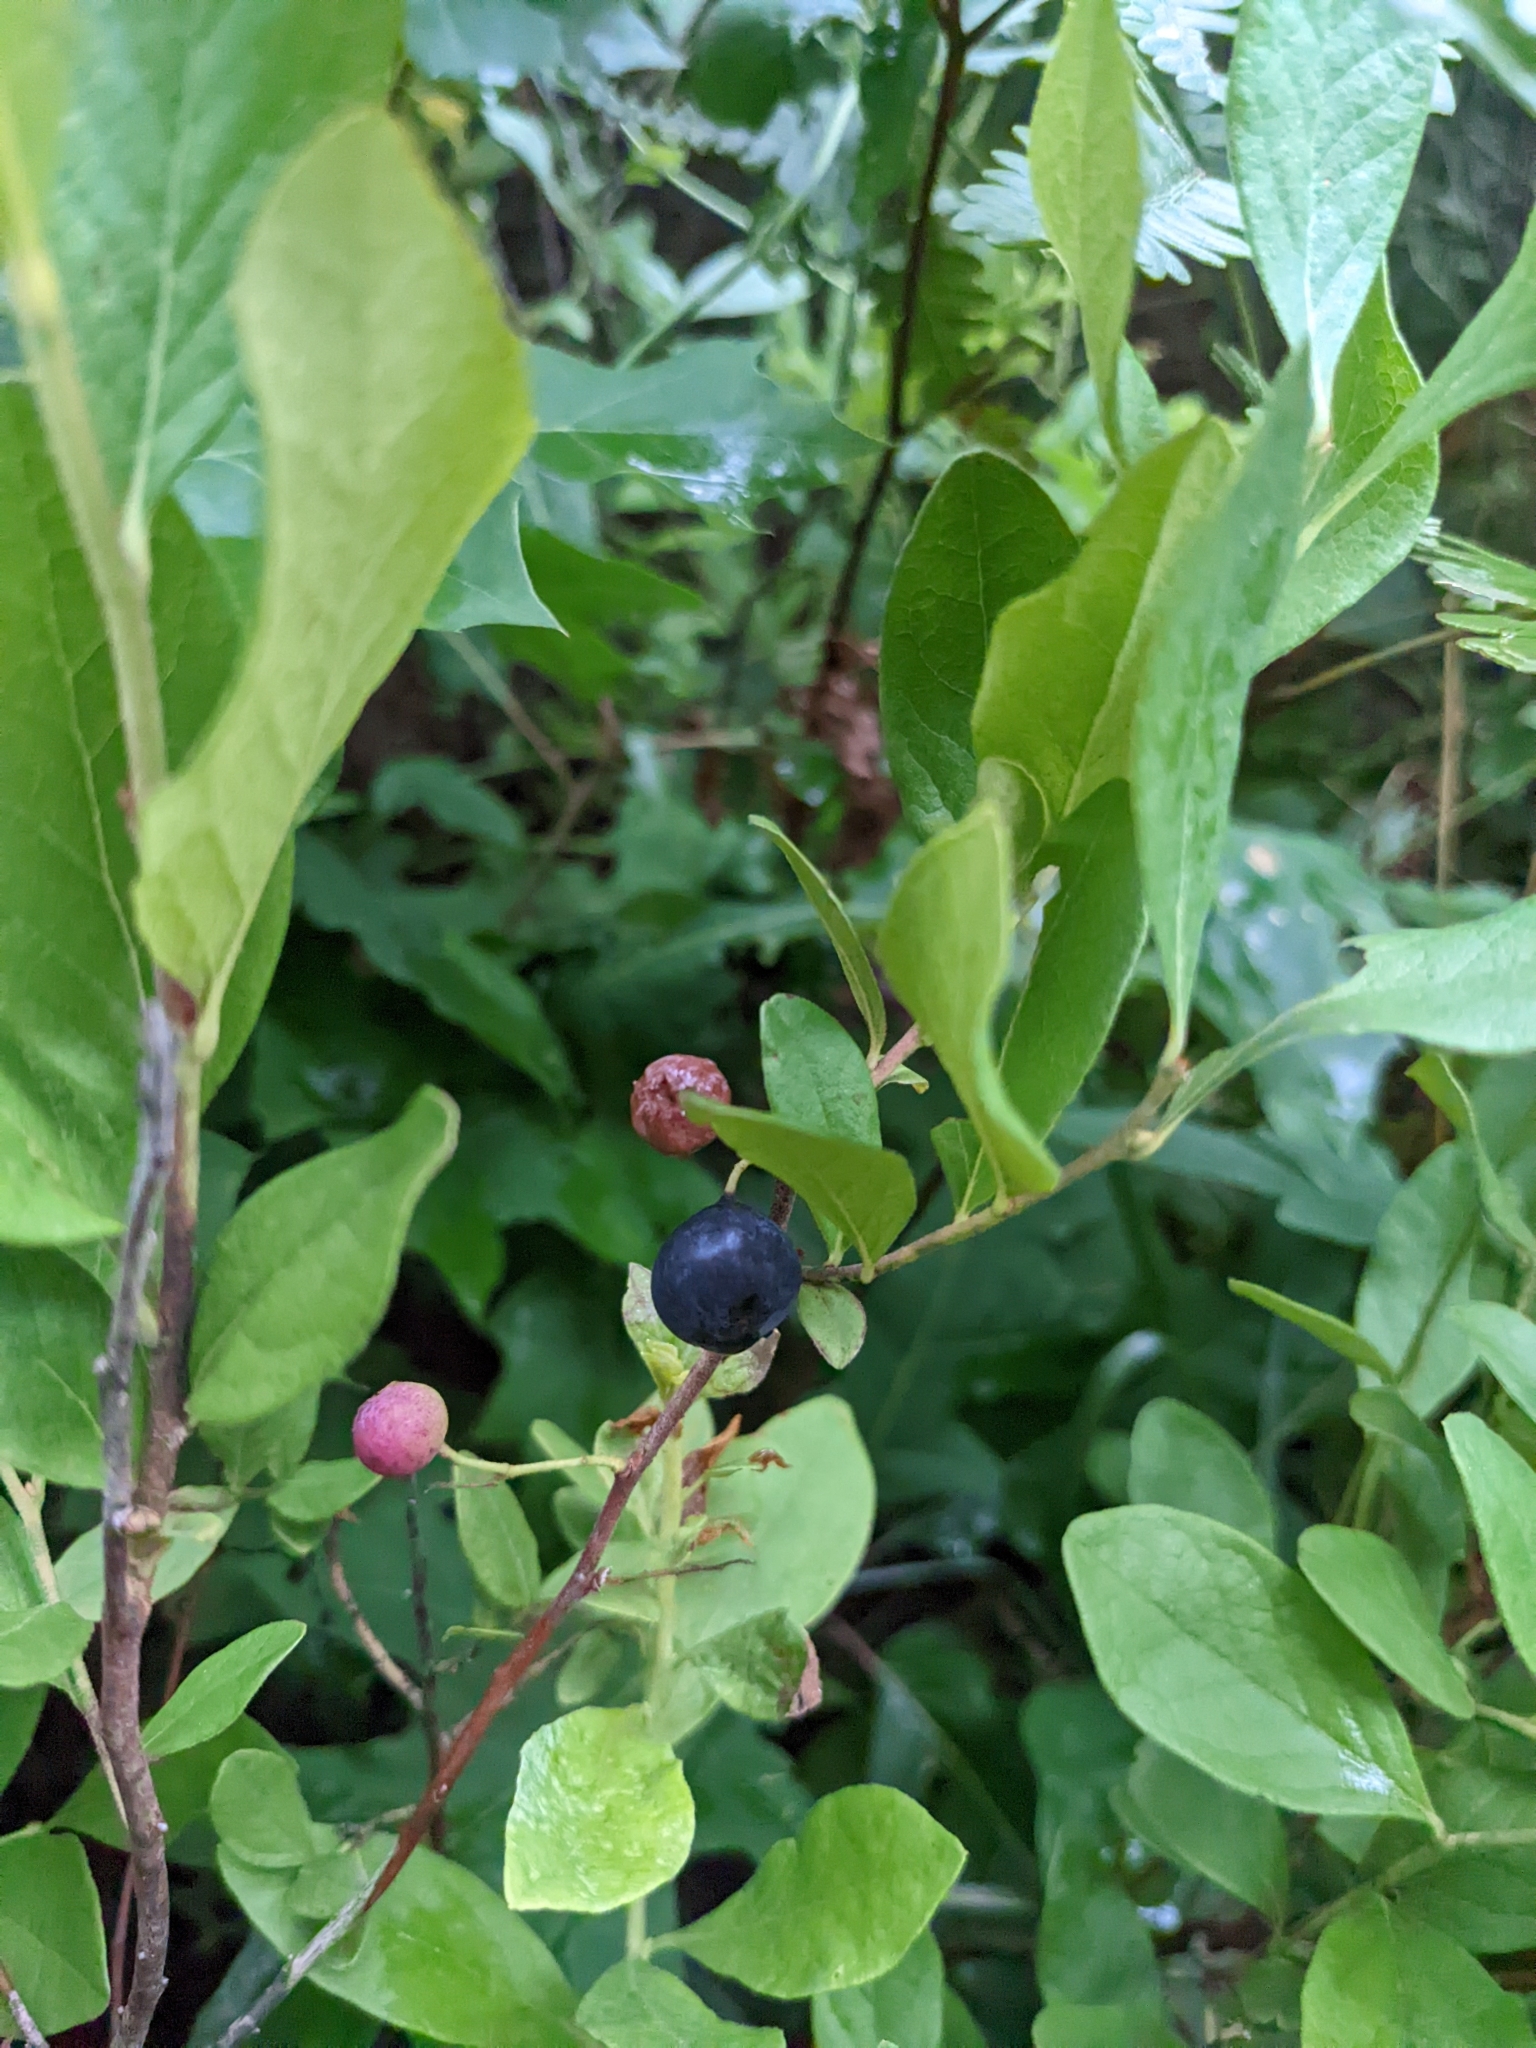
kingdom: Plantae
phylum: Tracheophyta
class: Magnoliopsida
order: Ericales
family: Ericaceae
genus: Gaylussacia
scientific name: Gaylussacia baccata
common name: Black huckleberry
